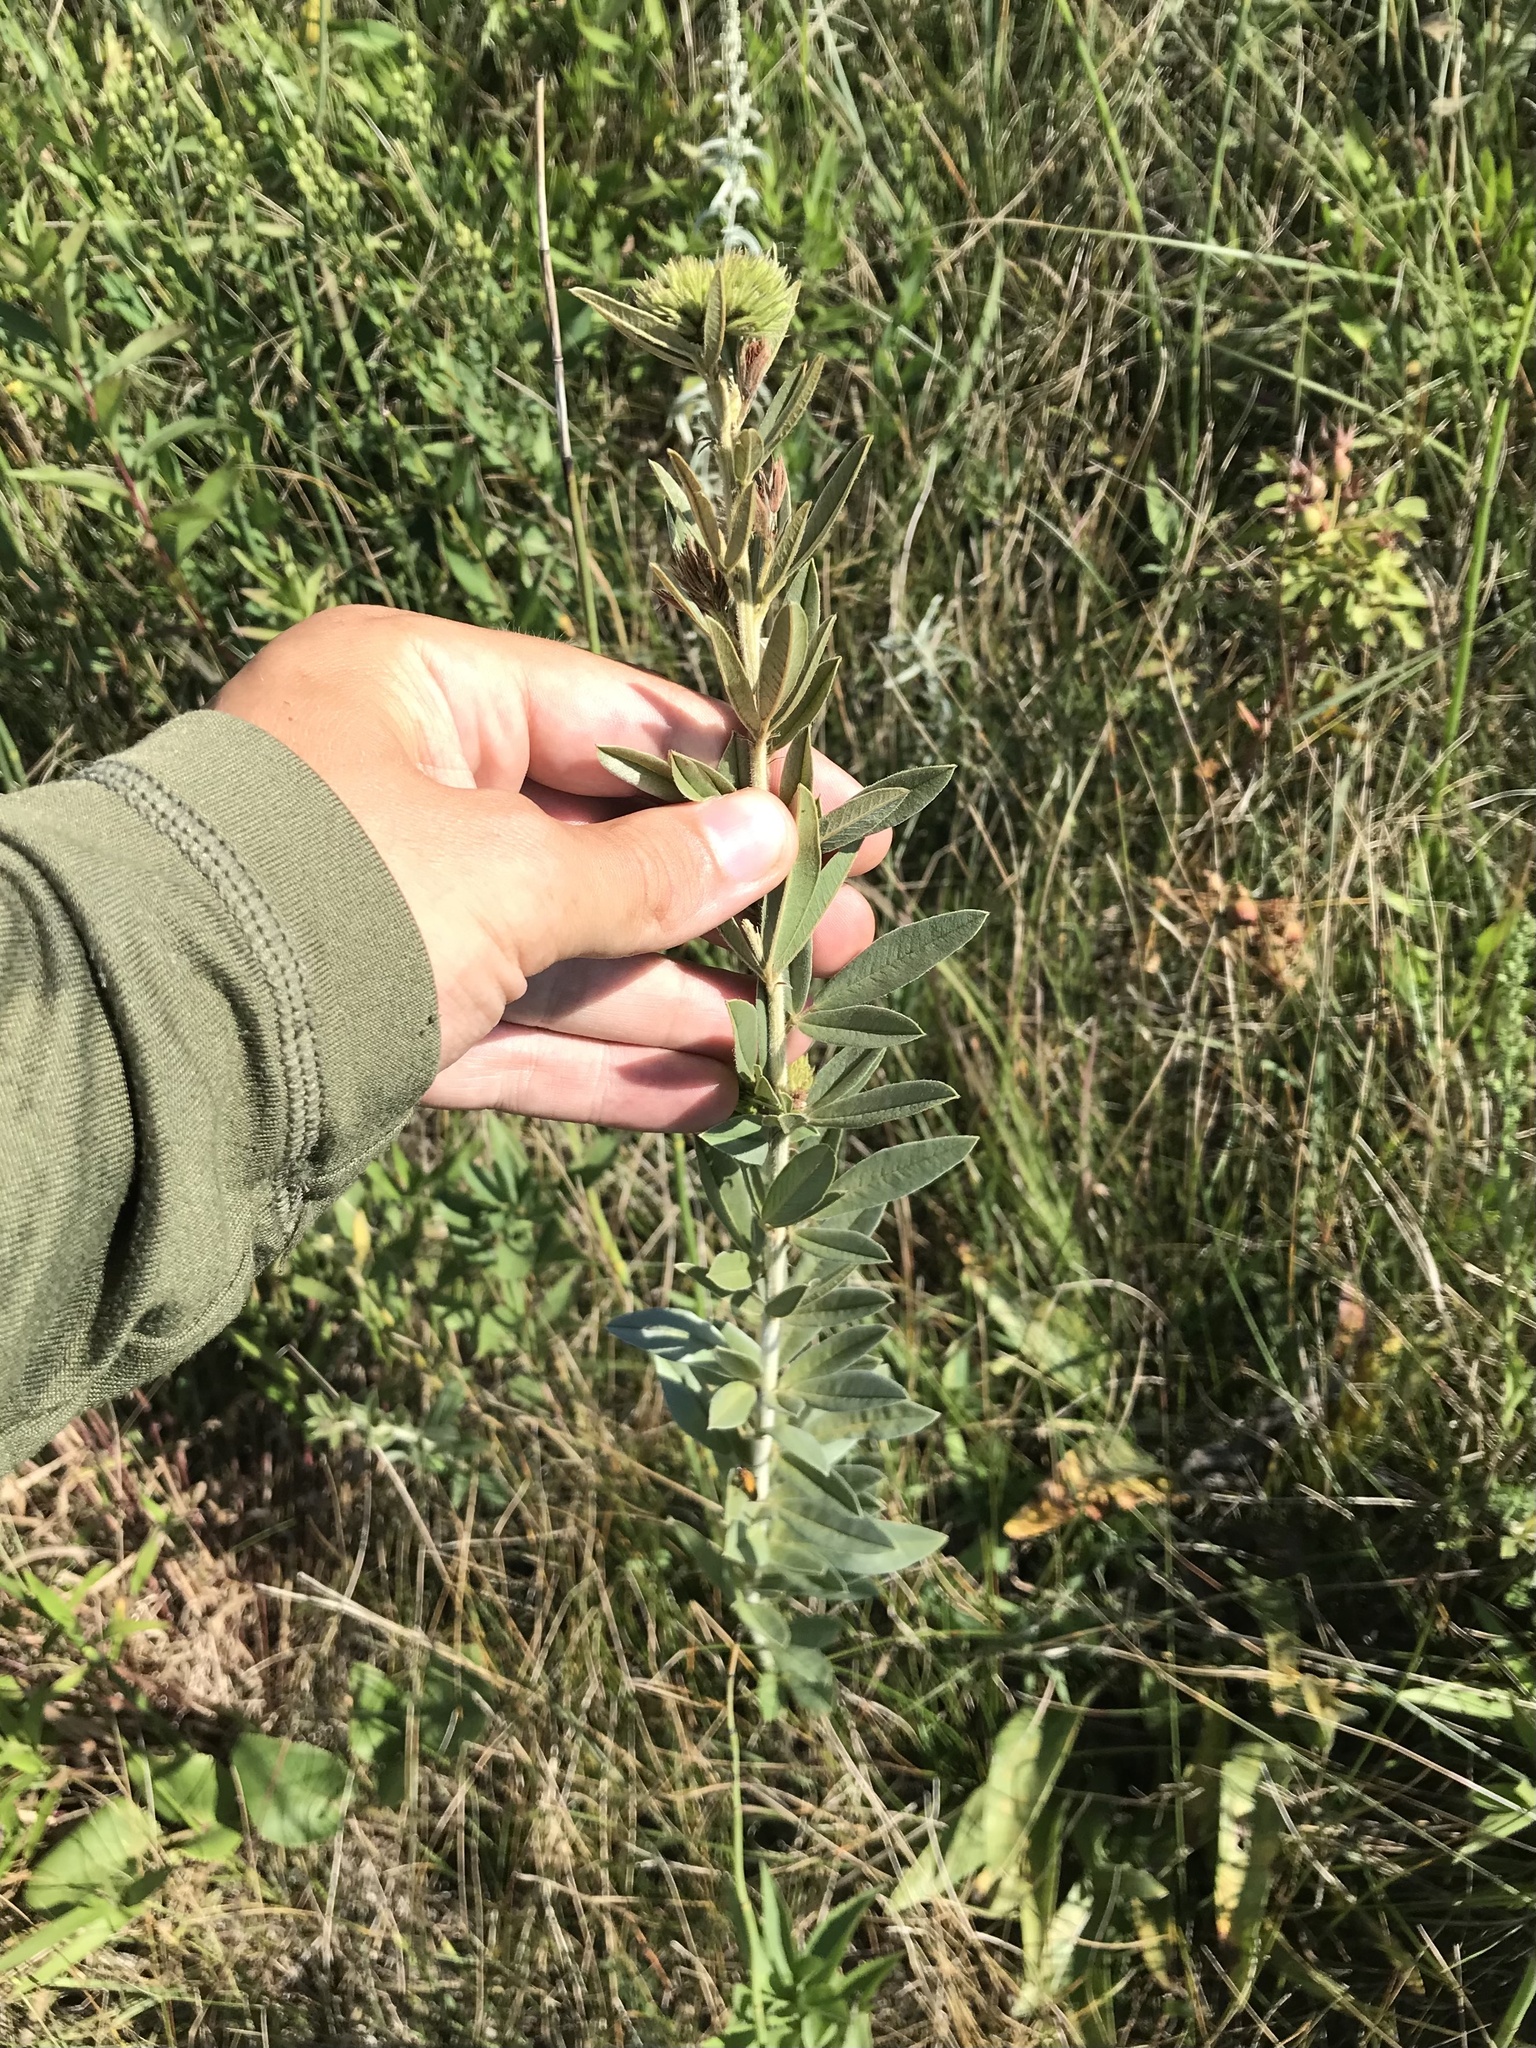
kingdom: Plantae
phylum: Tracheophyta
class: Magnoliopsida
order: Fabales
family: Fabaceae
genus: Lespedeza
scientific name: Lespedeza capitata
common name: Dusty clover
